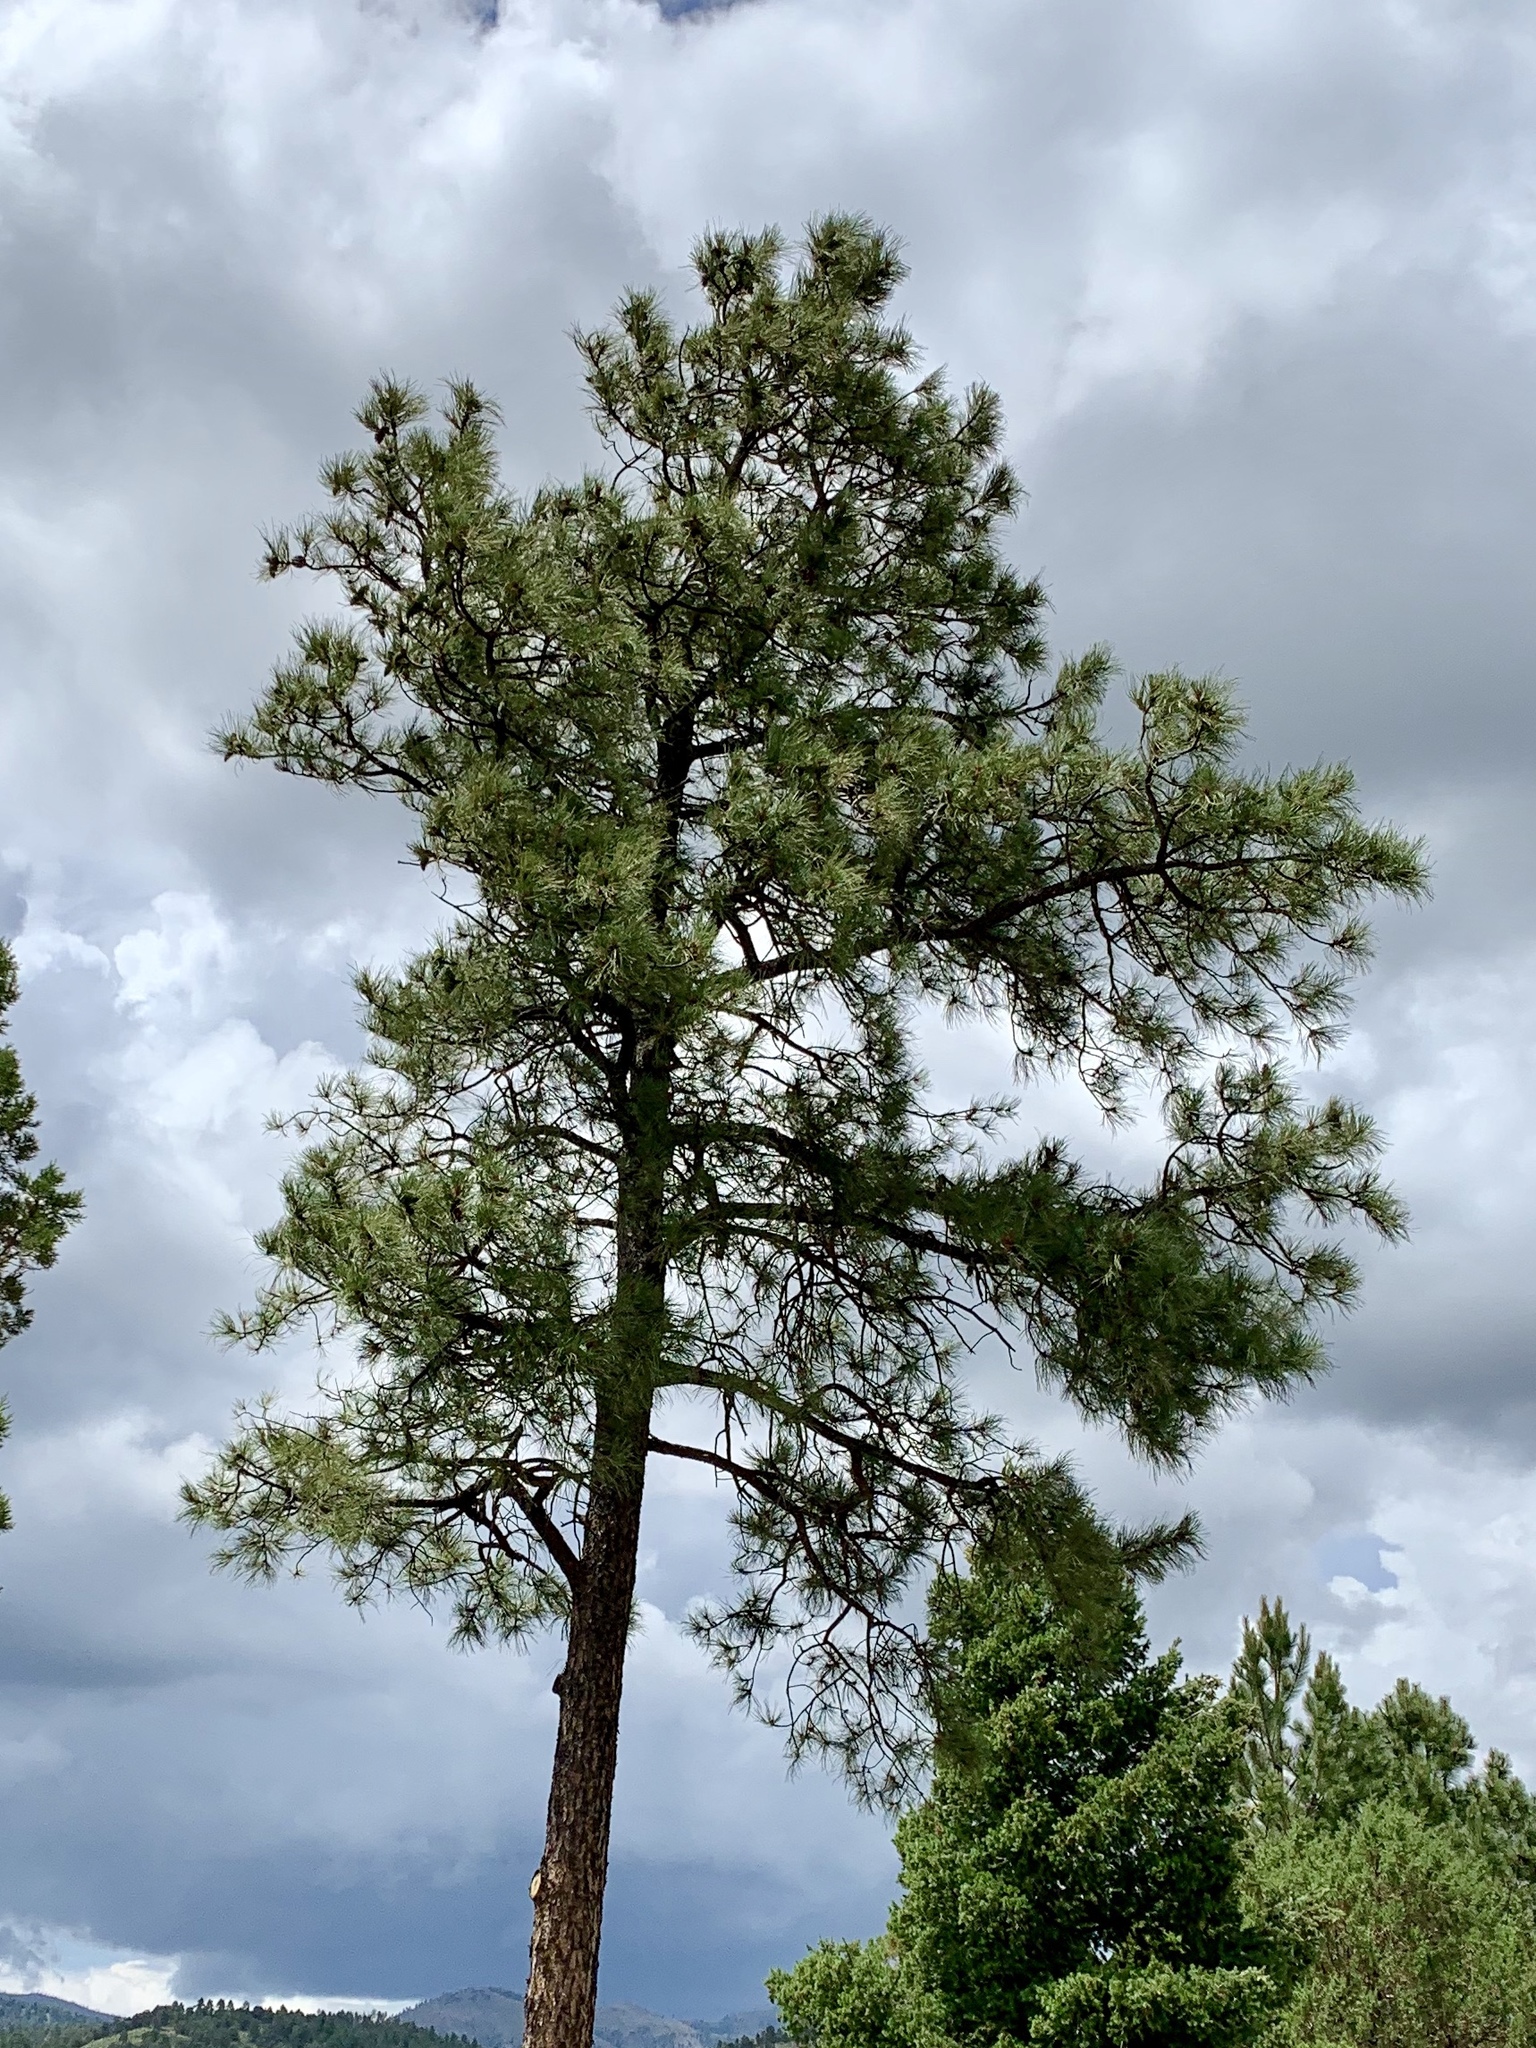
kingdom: Plantae
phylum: Tracheophyta
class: Pinopsida
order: Pinales
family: Pinaceae
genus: Pinus
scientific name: Pinus ponderosa
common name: Western yellow-pine
